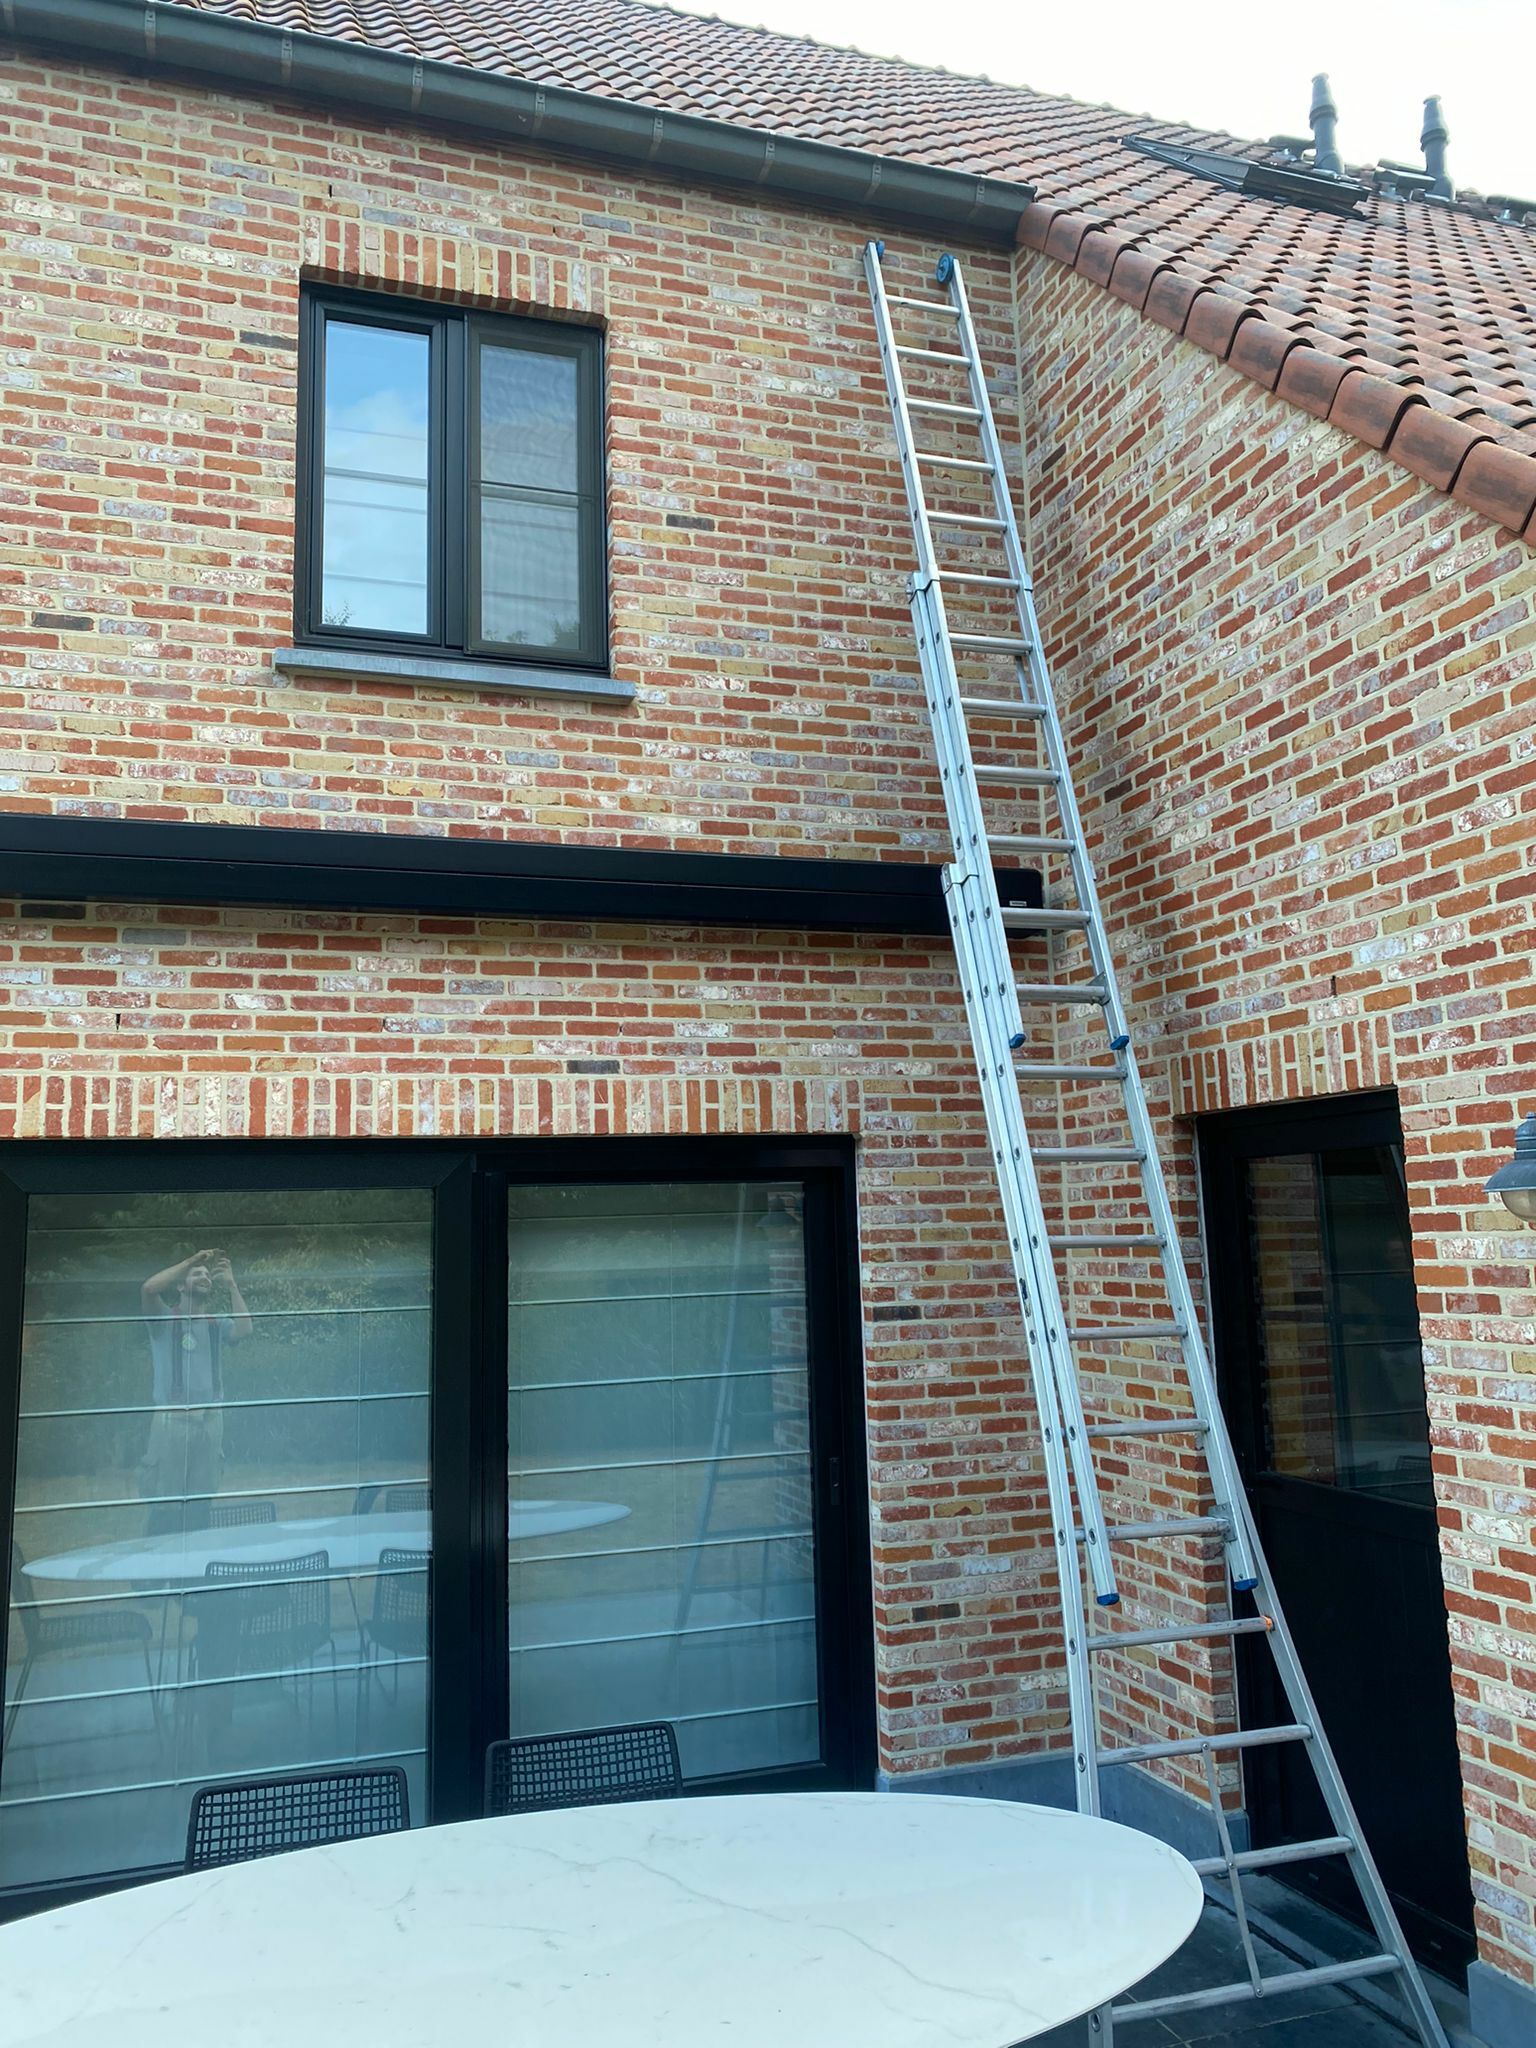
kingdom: Animalia
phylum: Arthropoda
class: Insecta
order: Hymenoptera
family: Vespidae
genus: Vespa
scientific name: Vespa velutina
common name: Asian hornet
